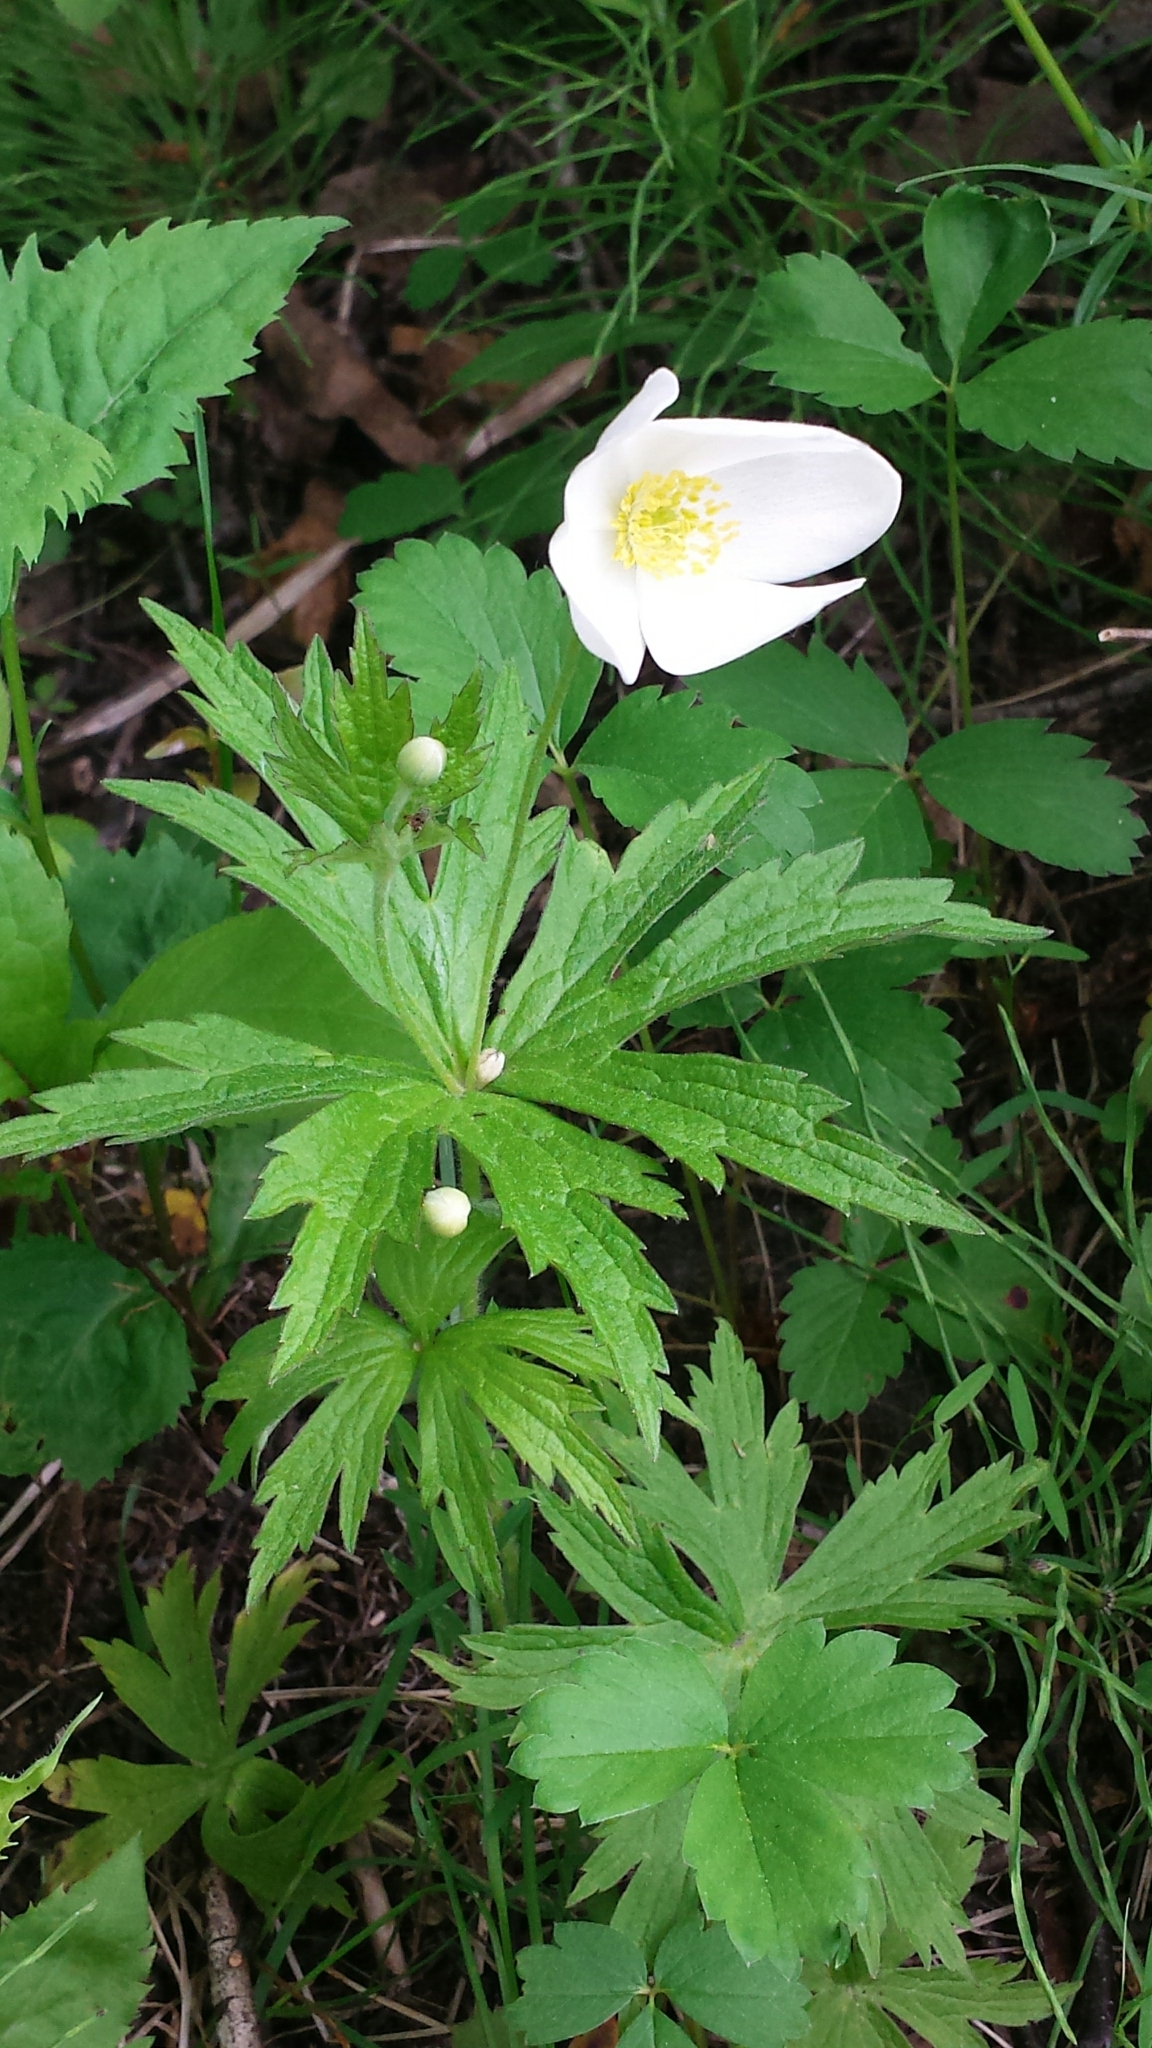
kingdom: Plantae
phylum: Tracheophyta
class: Magnoliopsida
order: Ranunculales
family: Ranunculaceae
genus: Anemonastrum
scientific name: Anemonastrum canadense
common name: Canada anemone
